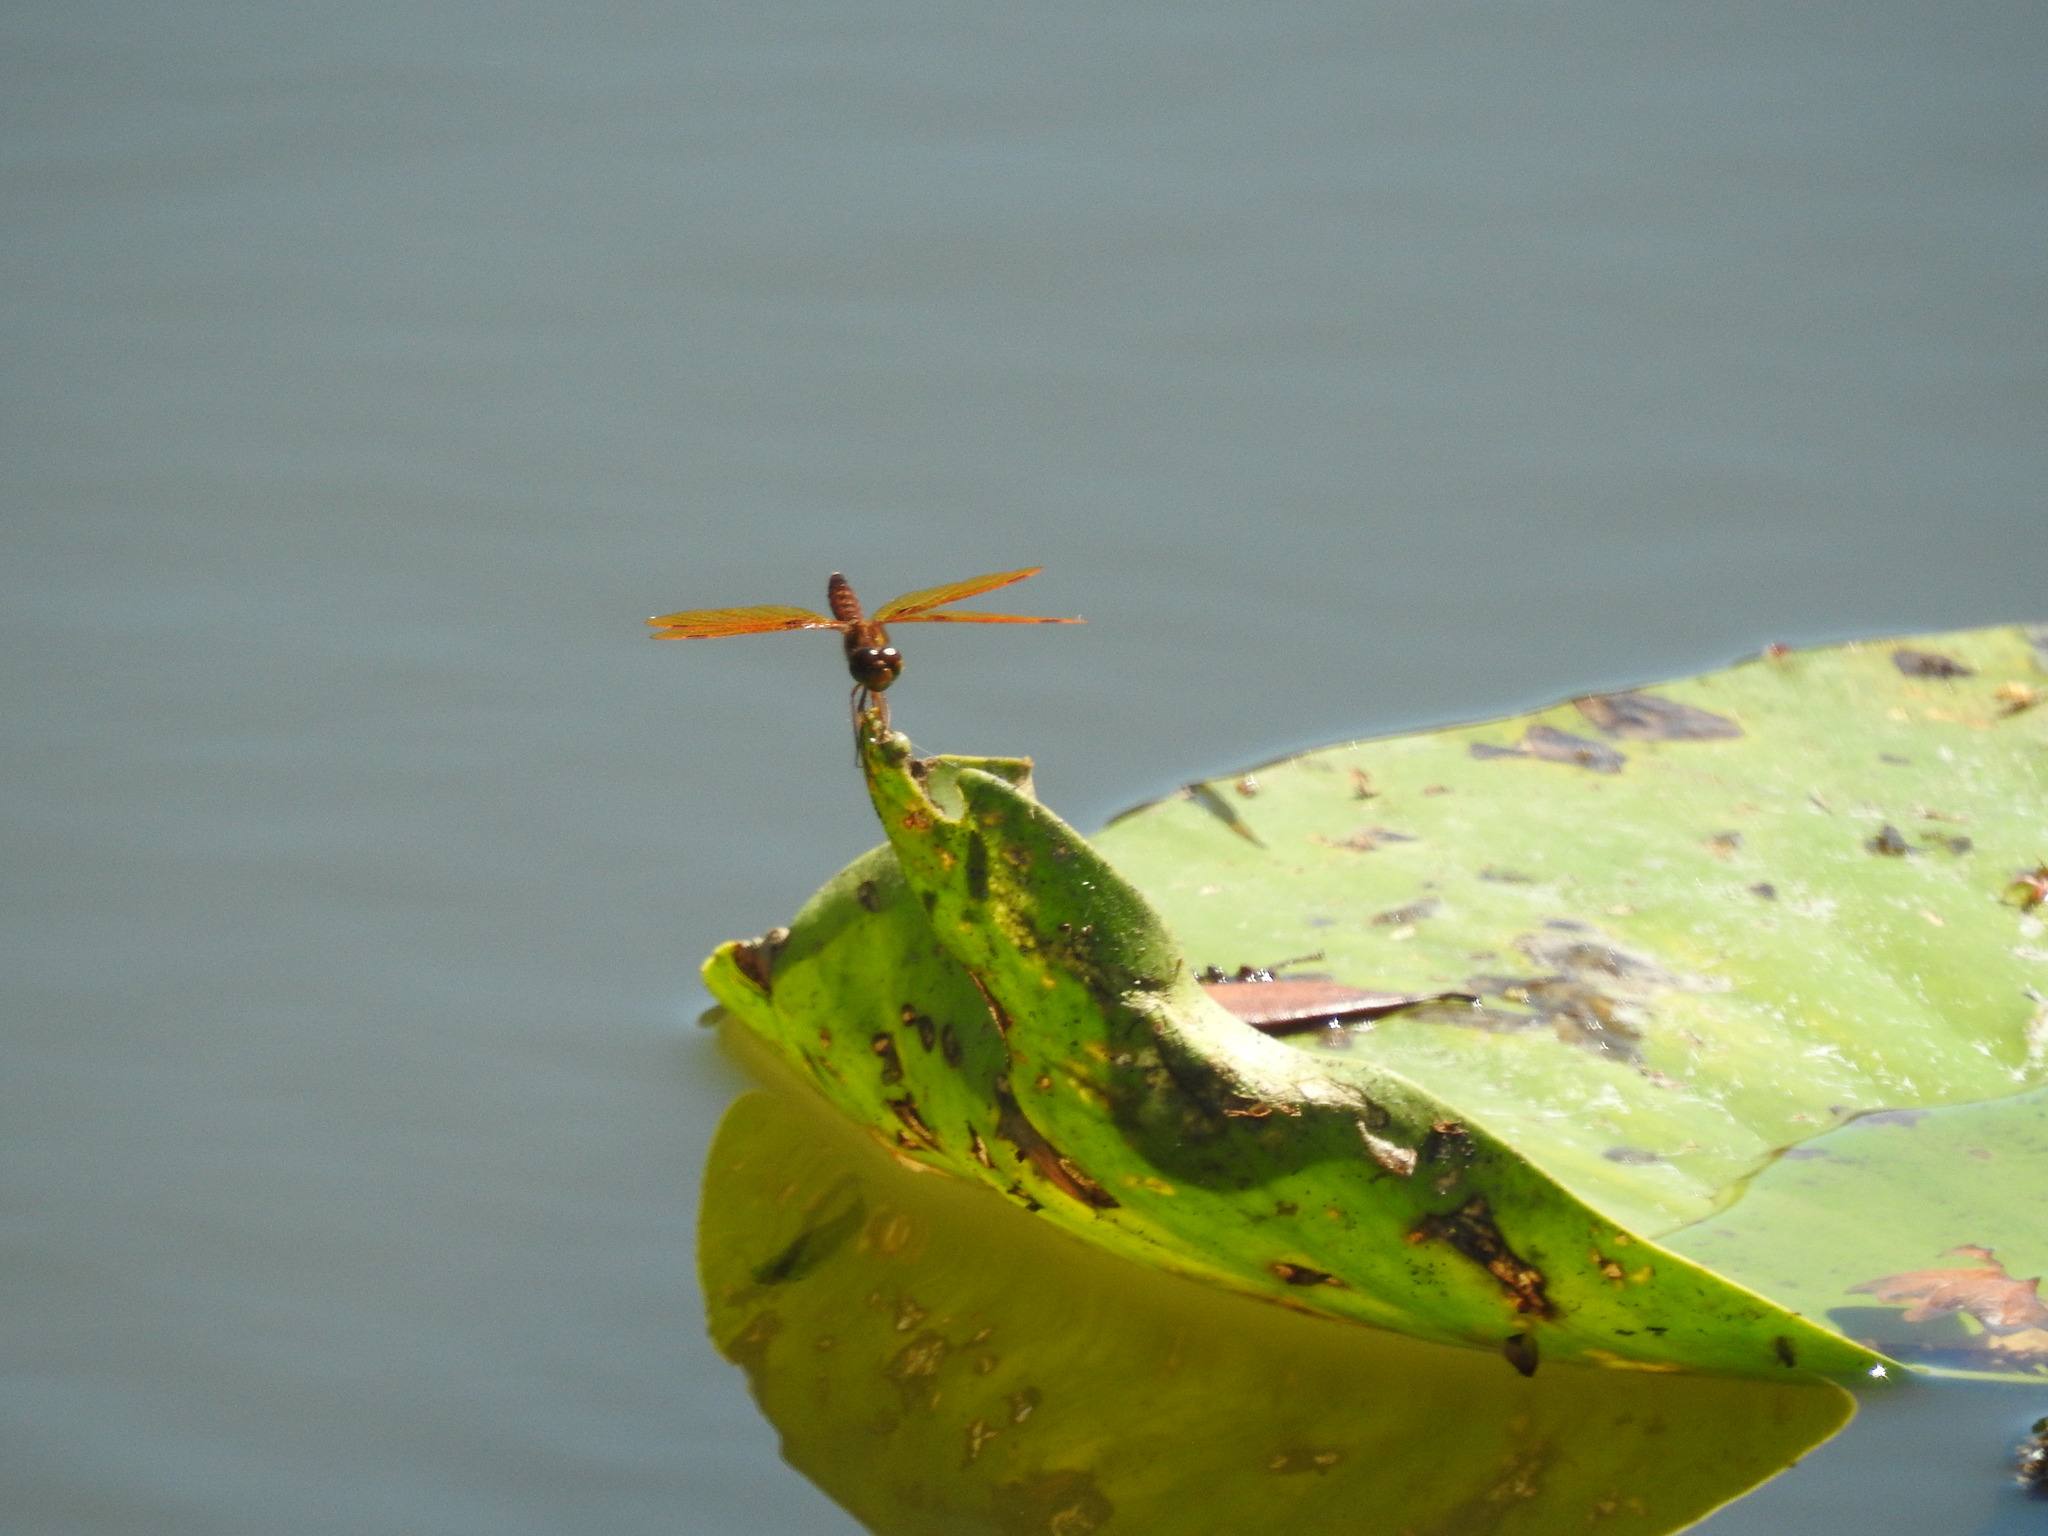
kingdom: Animalia
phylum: Arthropoda
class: Insecta
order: Odonata
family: Libellulidae
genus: Perithemis
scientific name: Perithemis tenera
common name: Eastern amberwing
